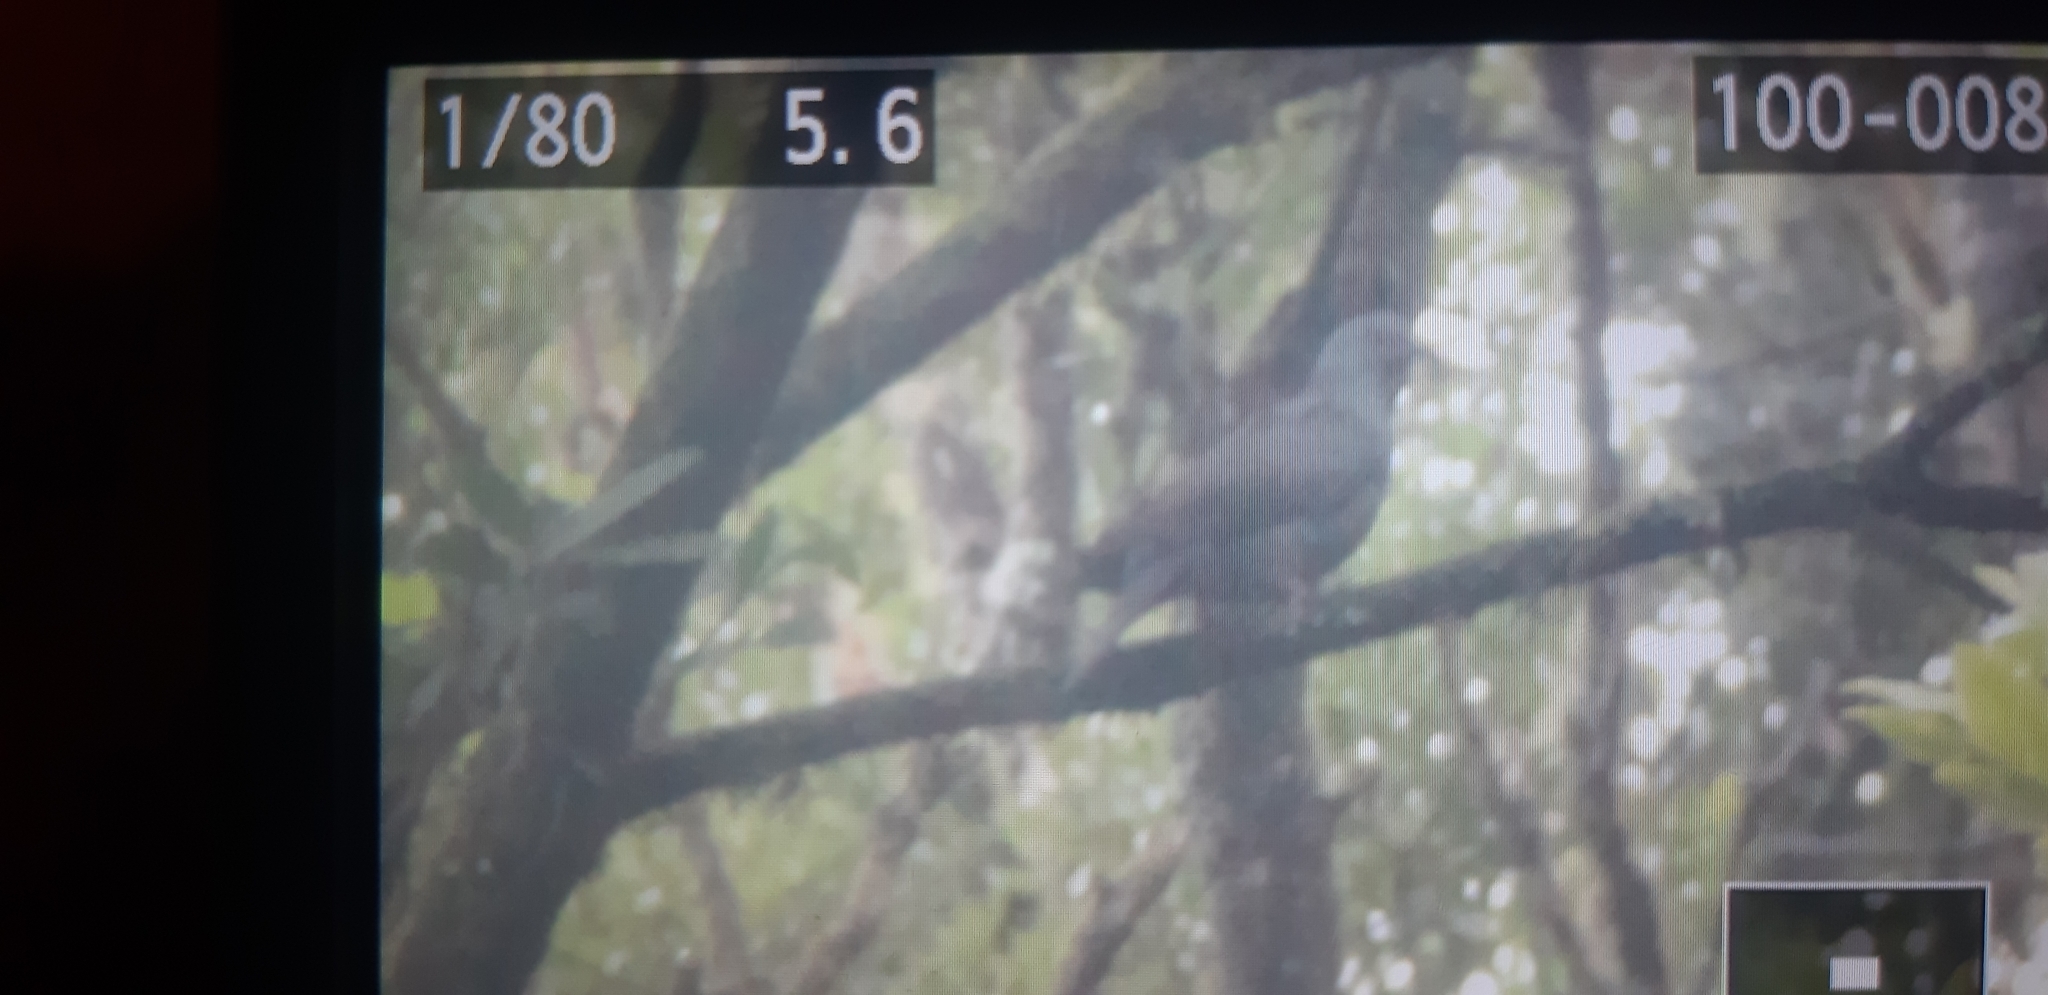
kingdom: Animalia
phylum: Chordata
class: Aves
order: Columbiformes
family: Columbidae
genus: Columba
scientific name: Columba bollii
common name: Bolle's pigeon
